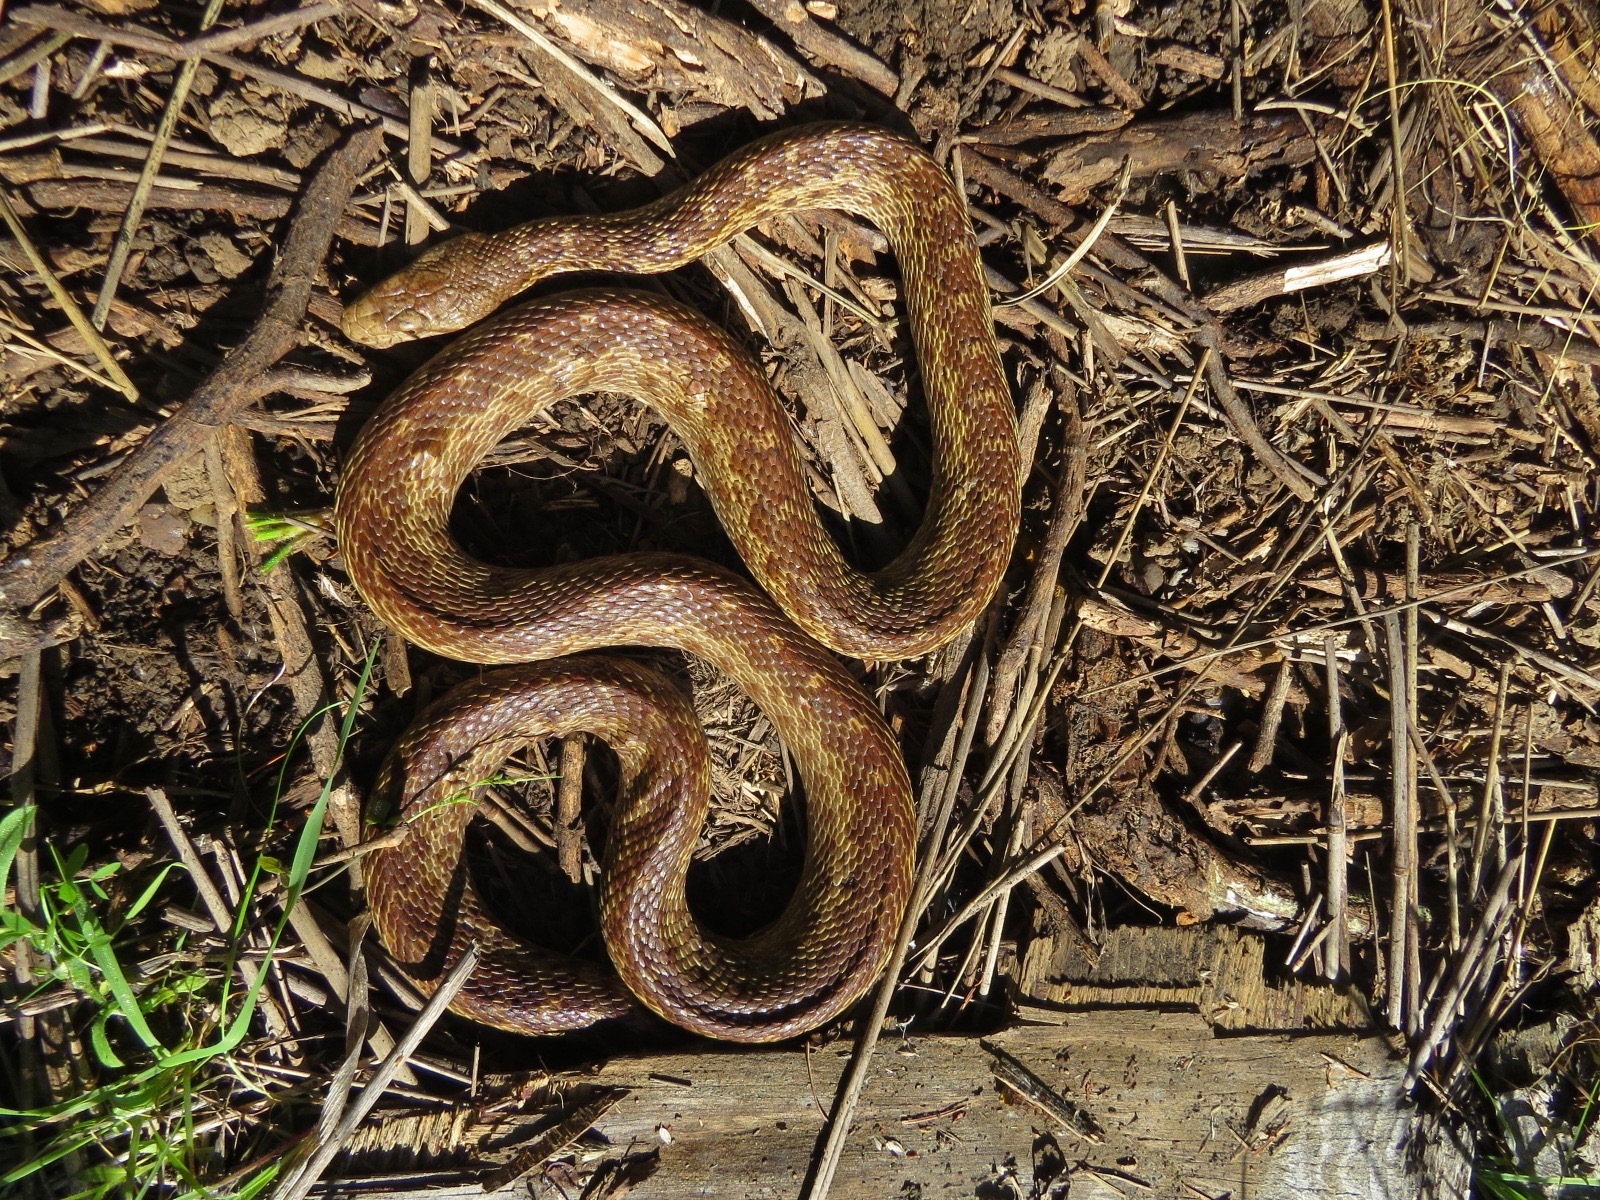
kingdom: Animalia
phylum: Chordata
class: Squamata
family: Colubridae
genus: Pituophis
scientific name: Pituophis catenifer
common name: Gopher snake
